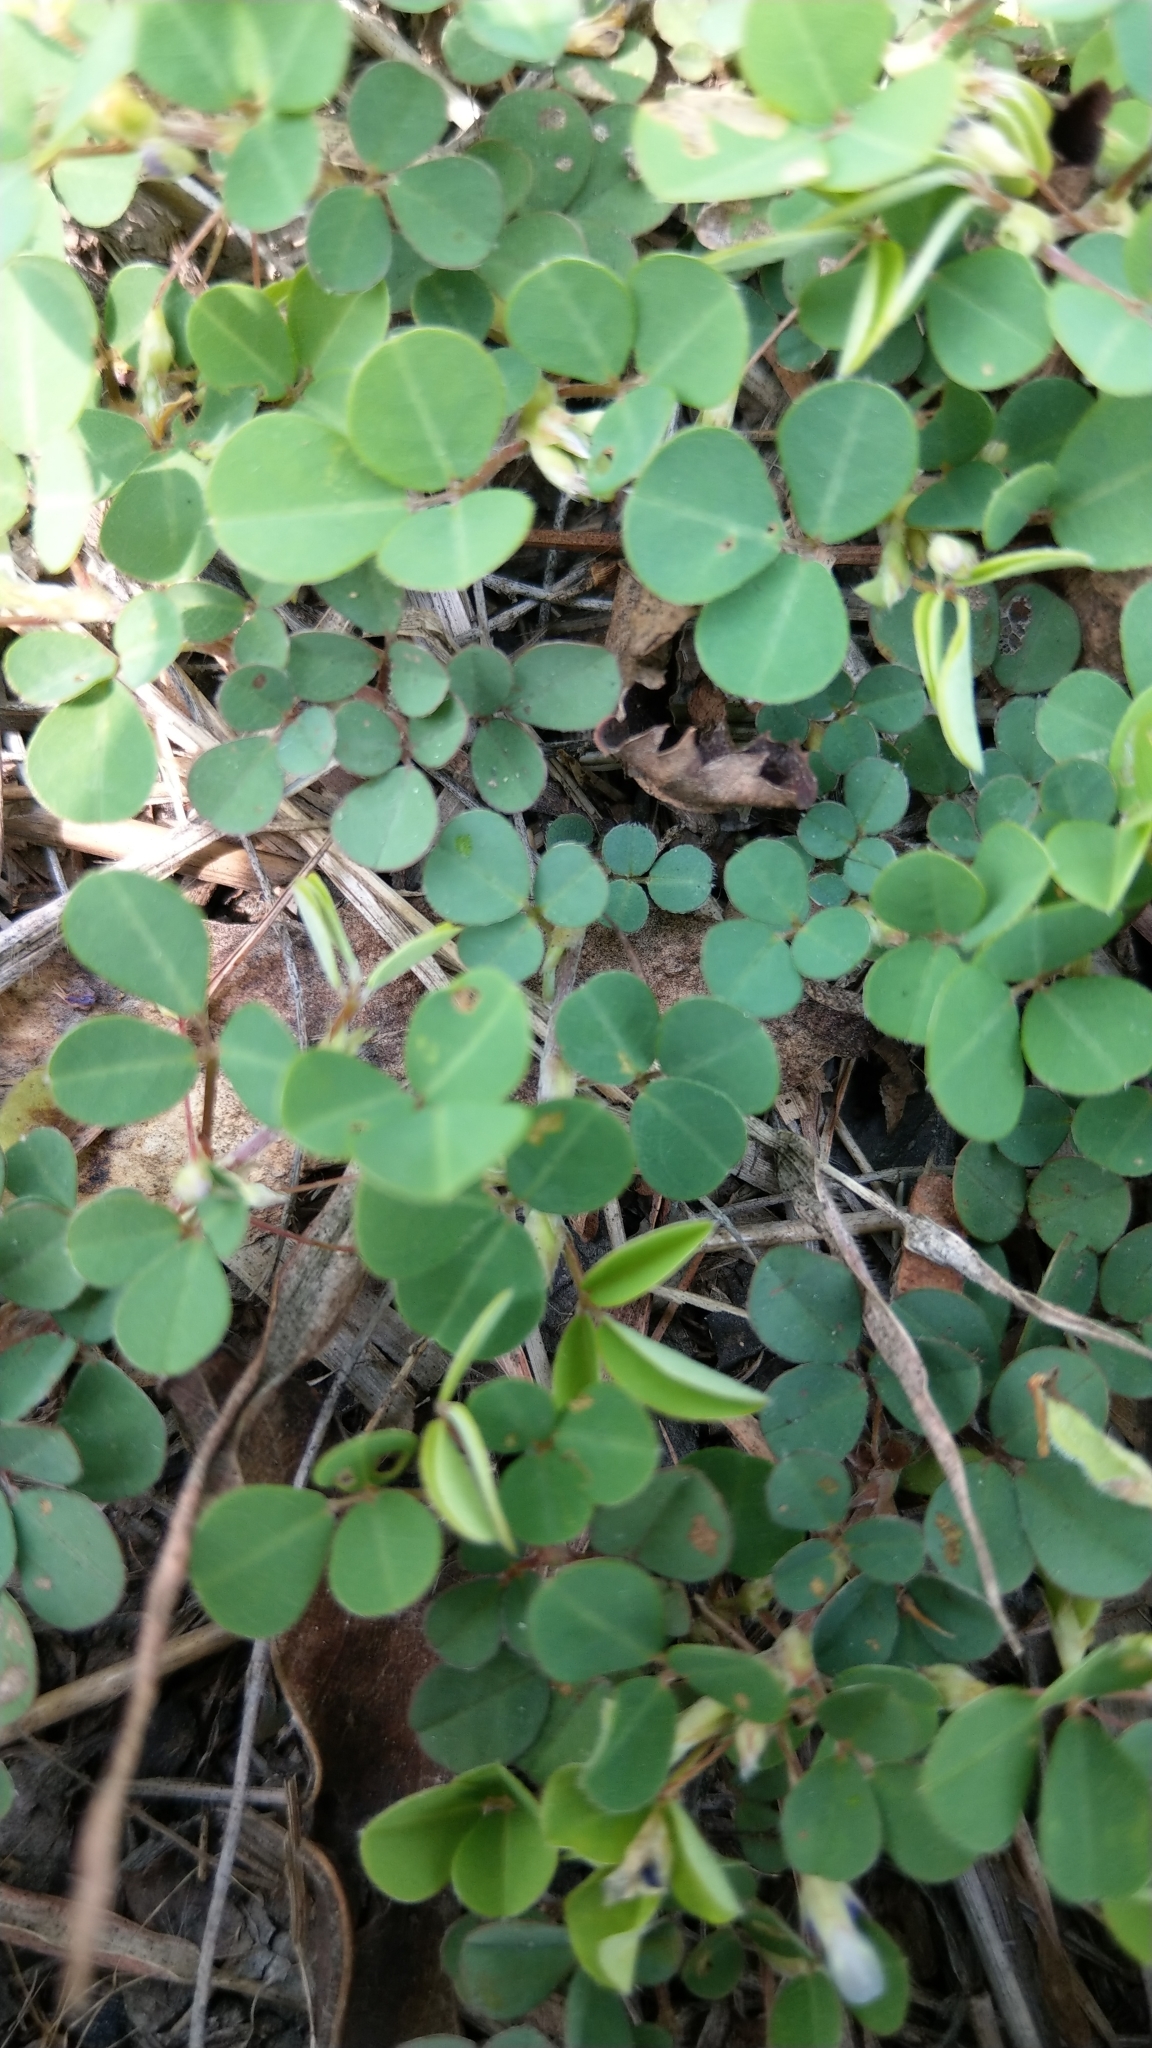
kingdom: Plantae
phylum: Tracheophyta
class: Magnoliopsida
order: Fabales
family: Fabaceae
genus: Grona
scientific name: Grona triflora
